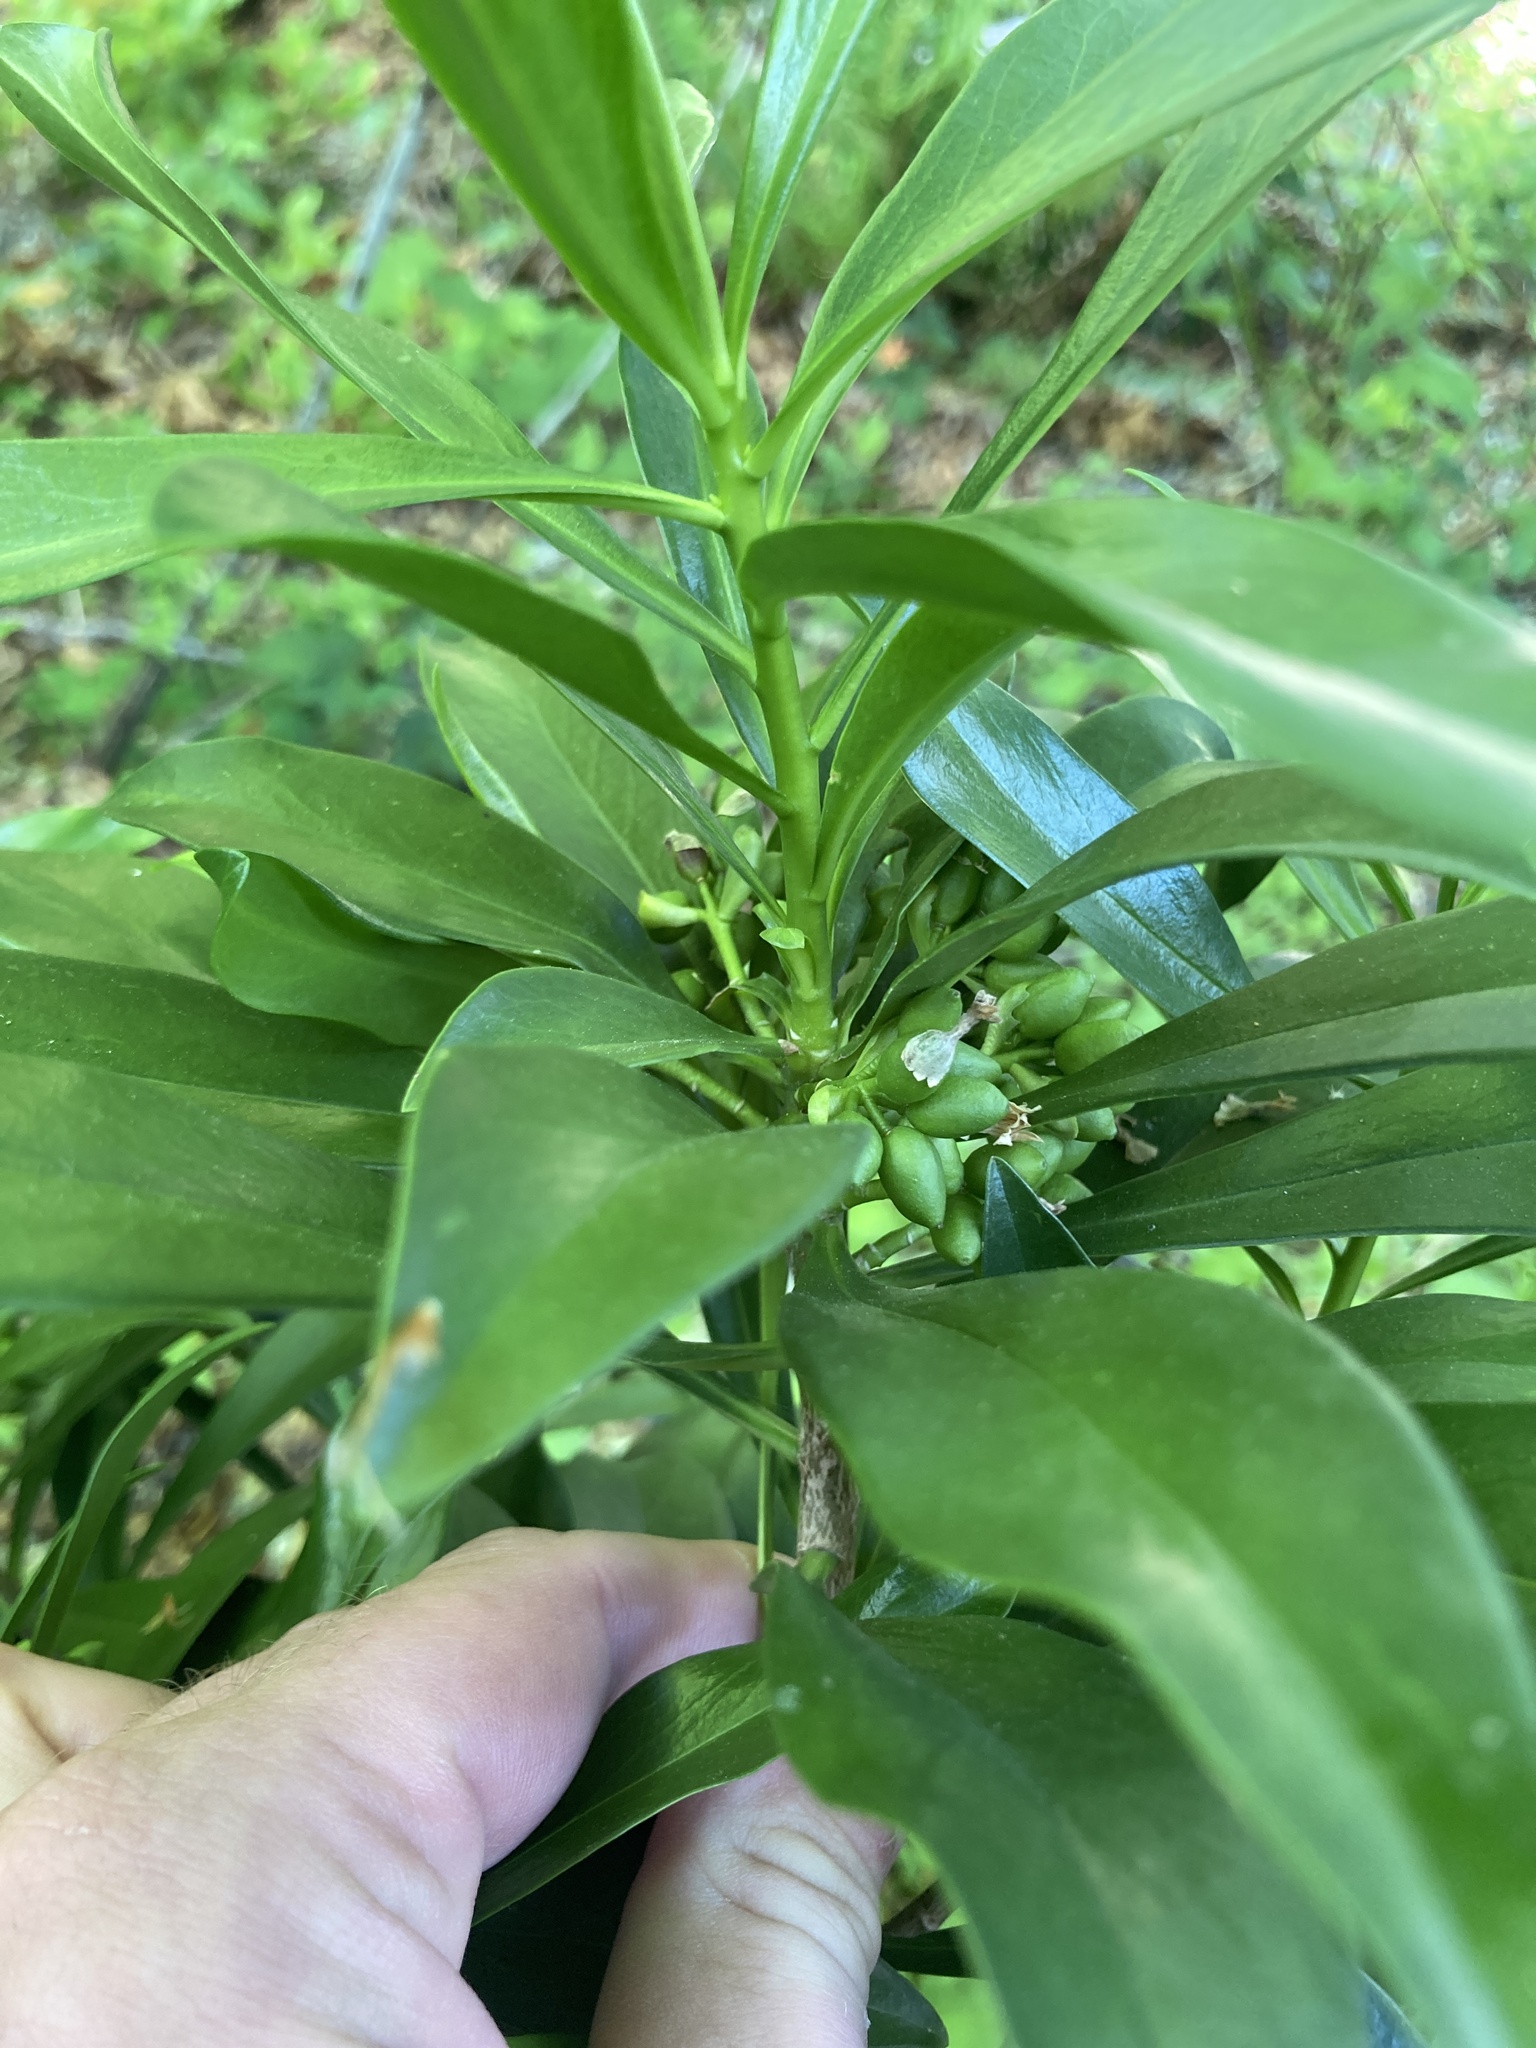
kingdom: Plantae
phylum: Tracheophyta
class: Magnoliopsida
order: Malvales
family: Thymelaeaceae
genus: Daphne
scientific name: Daphne laureola
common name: Spurge-laurel
